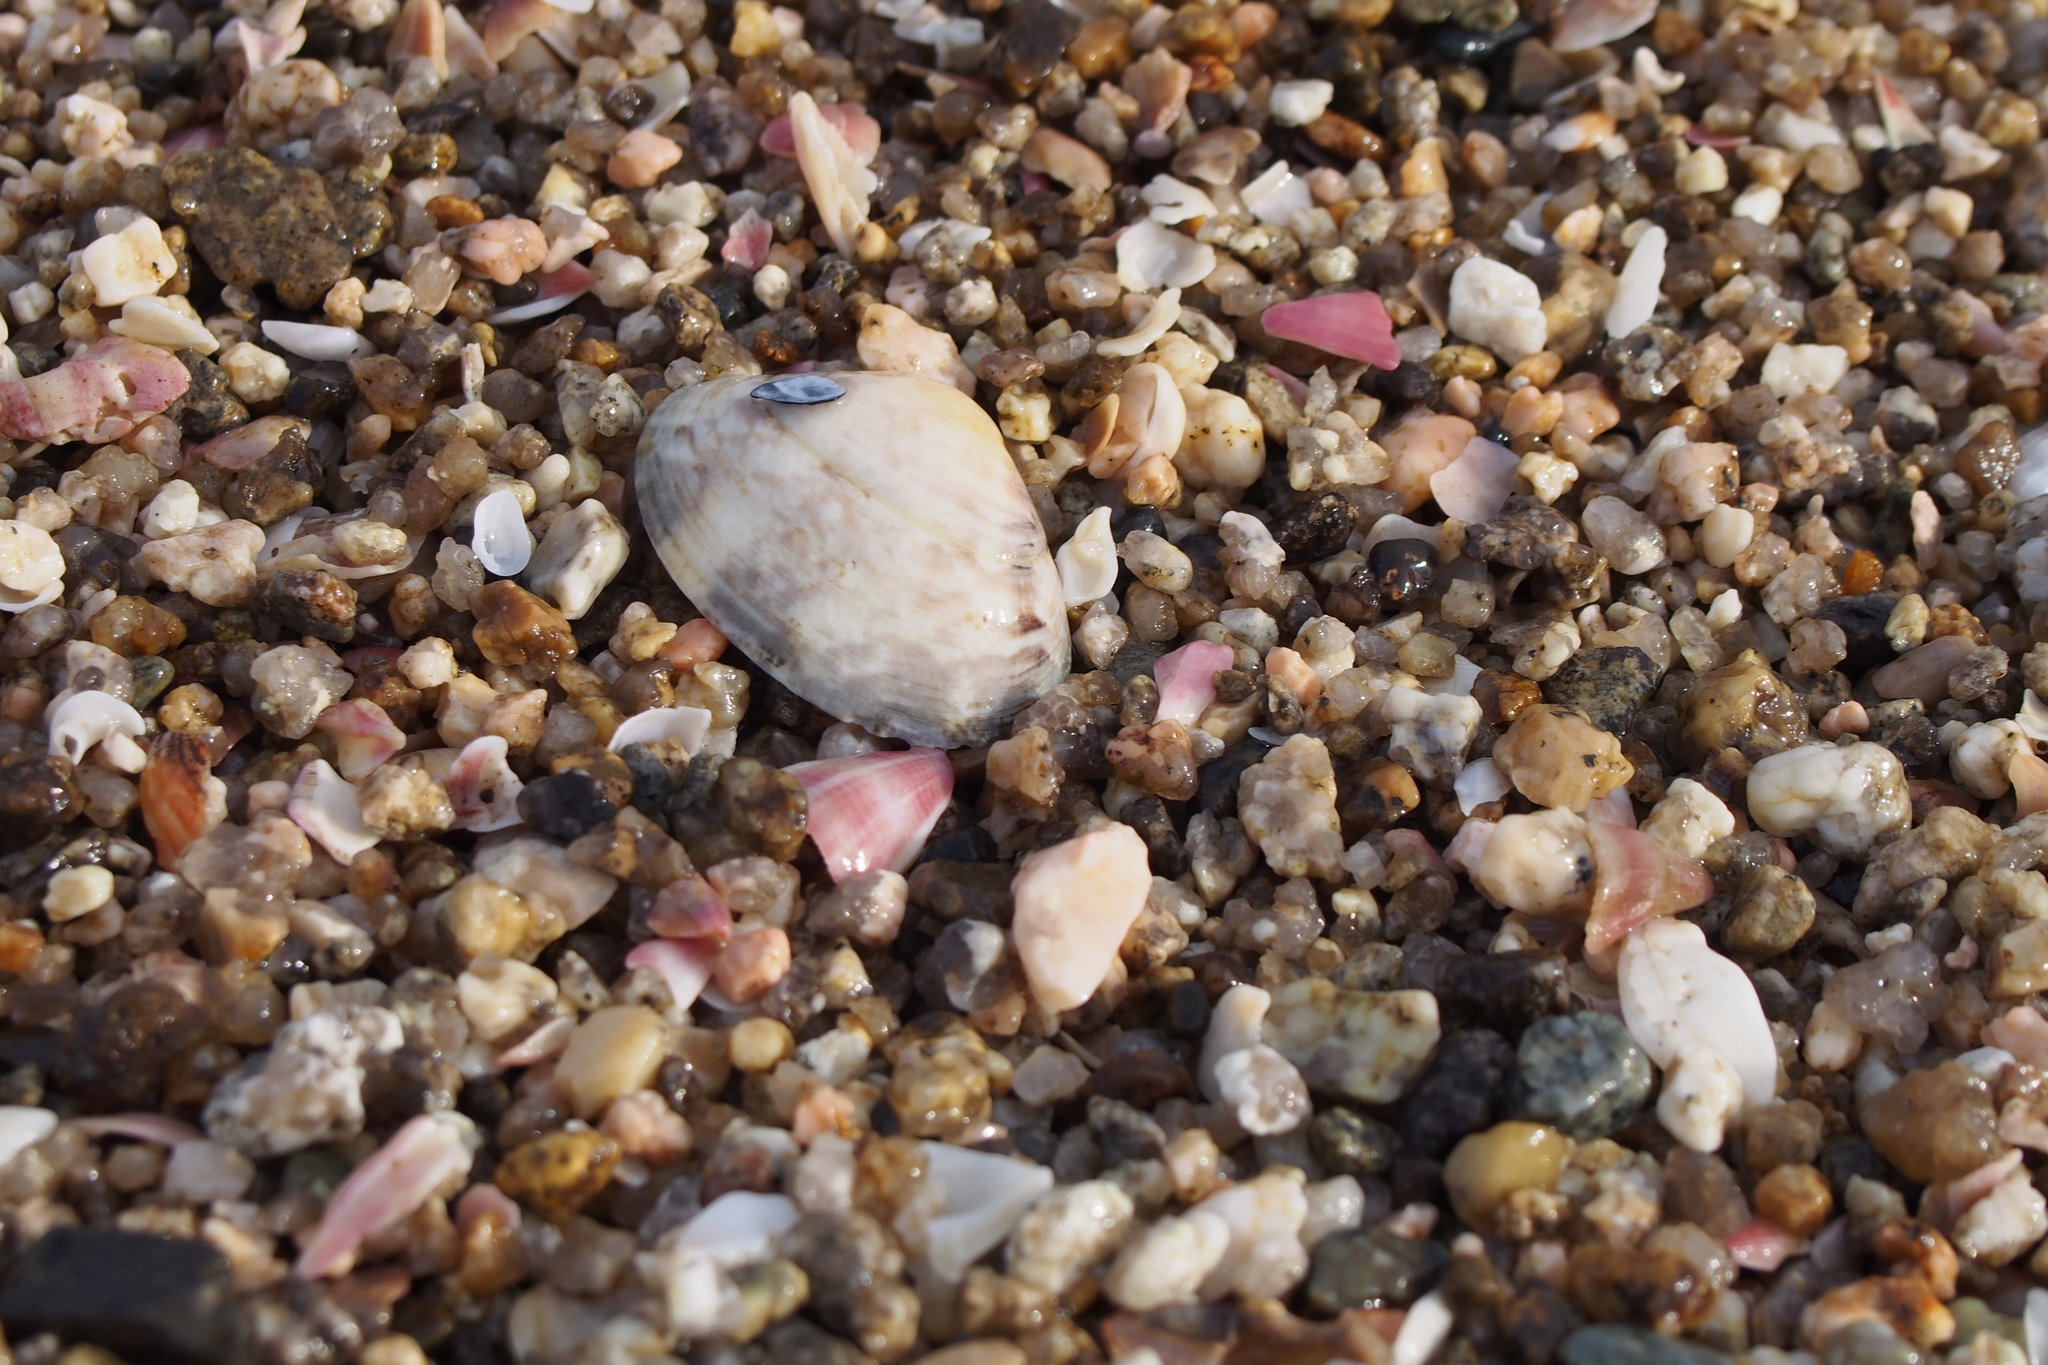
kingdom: Animalia
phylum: Mollusca
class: Bivalvia
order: Venerida
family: Veneridae
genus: Ruditapes
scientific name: Ruditapes philippinarum
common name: Manila clam
